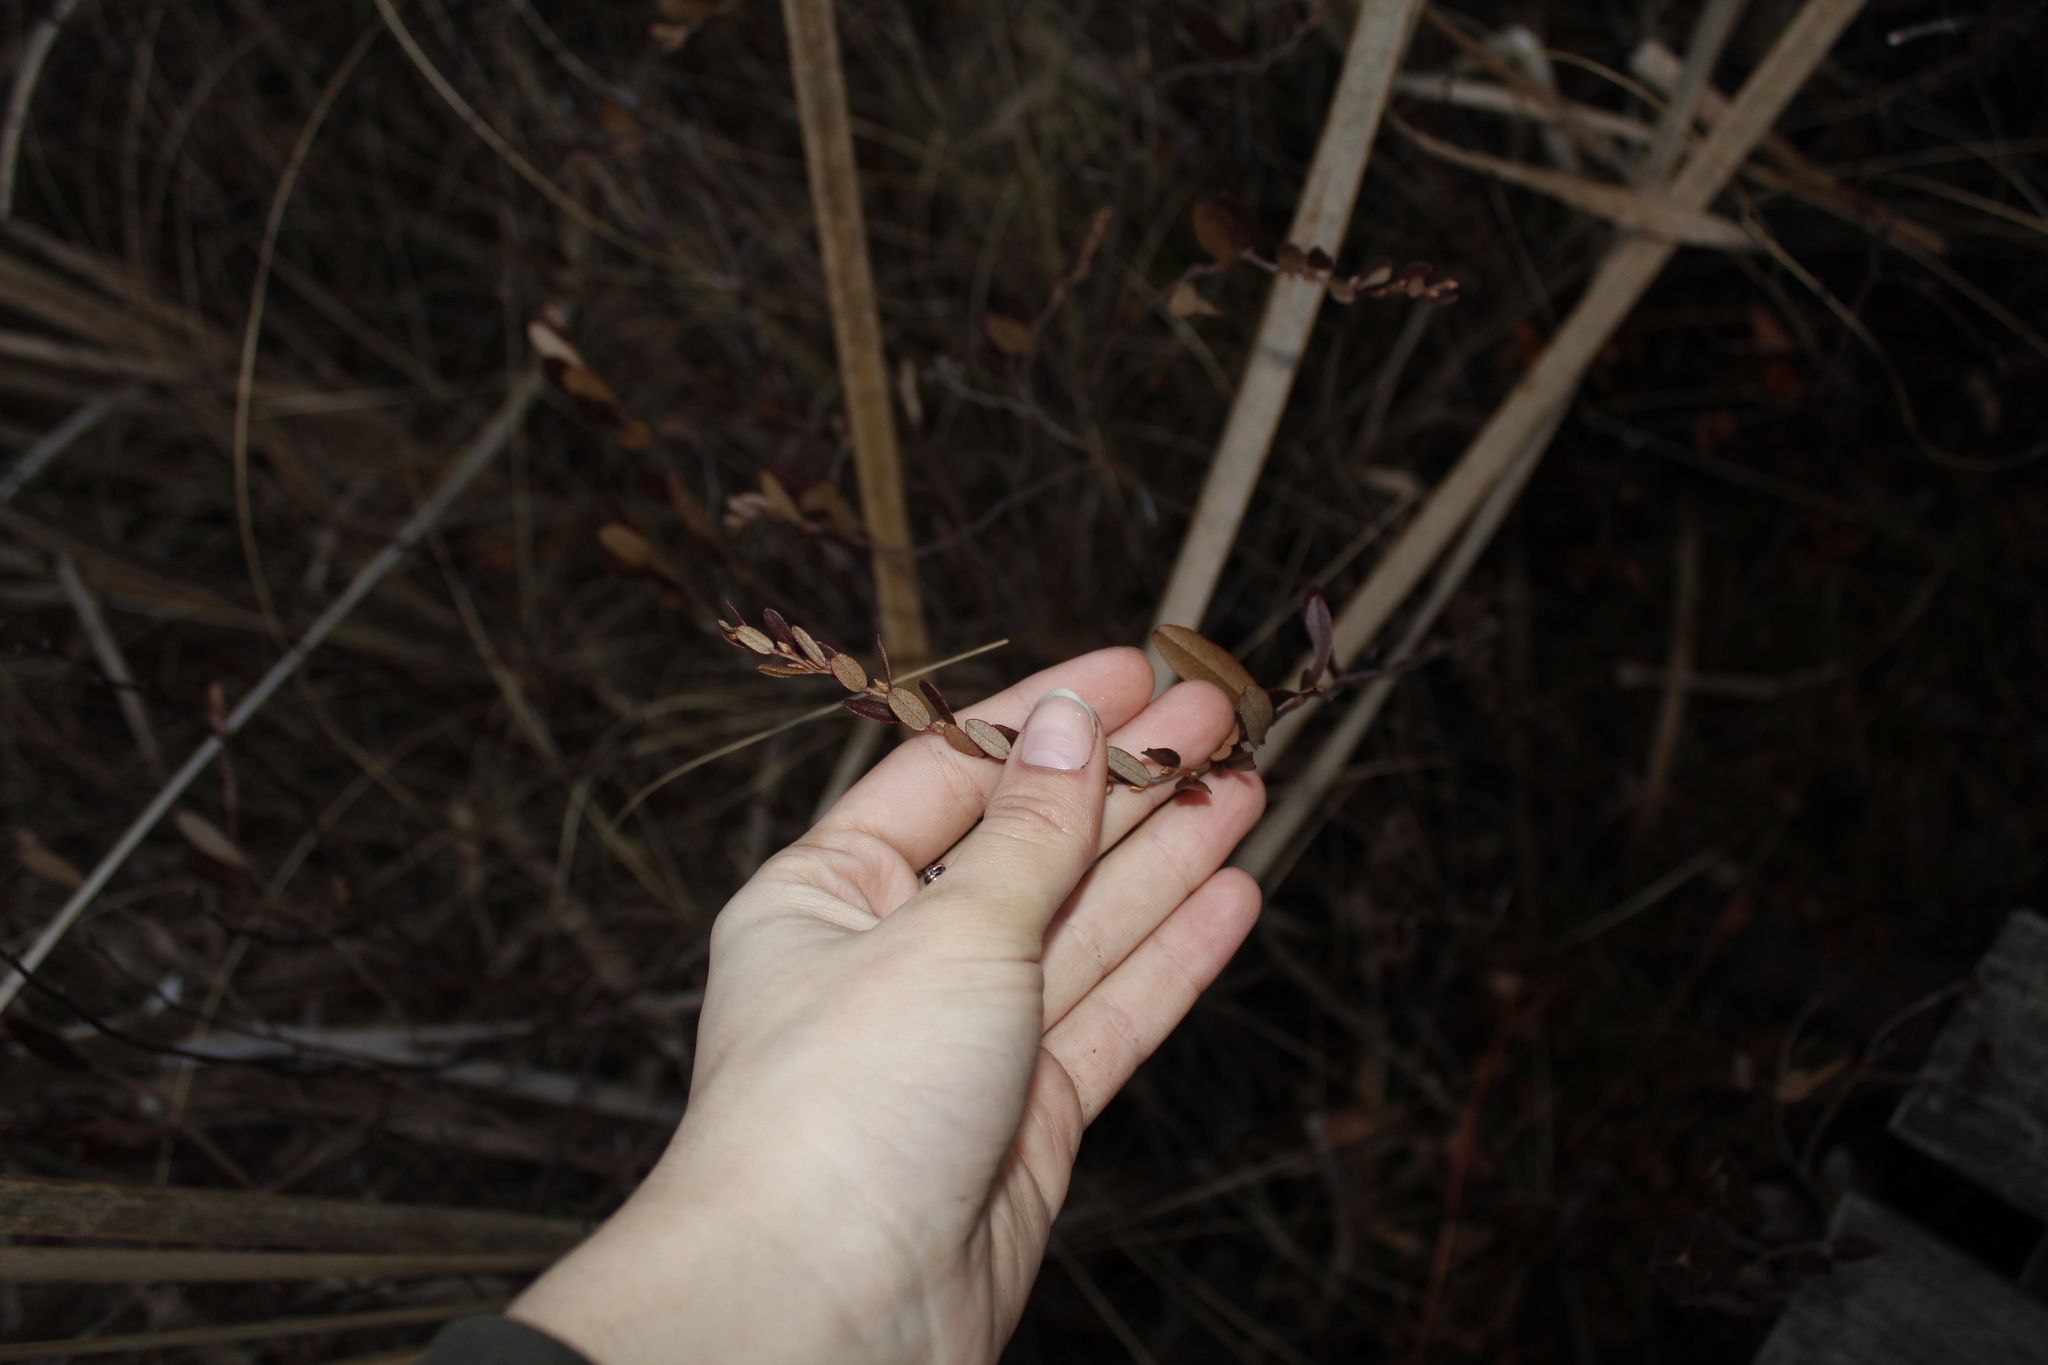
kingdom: Plantae
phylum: Tracheophyta
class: Magnoliopsida
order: Ericales
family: Ericaceae
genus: Chamaedaphne
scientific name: Chamaedaphne calyculata
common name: Leatherleaf
